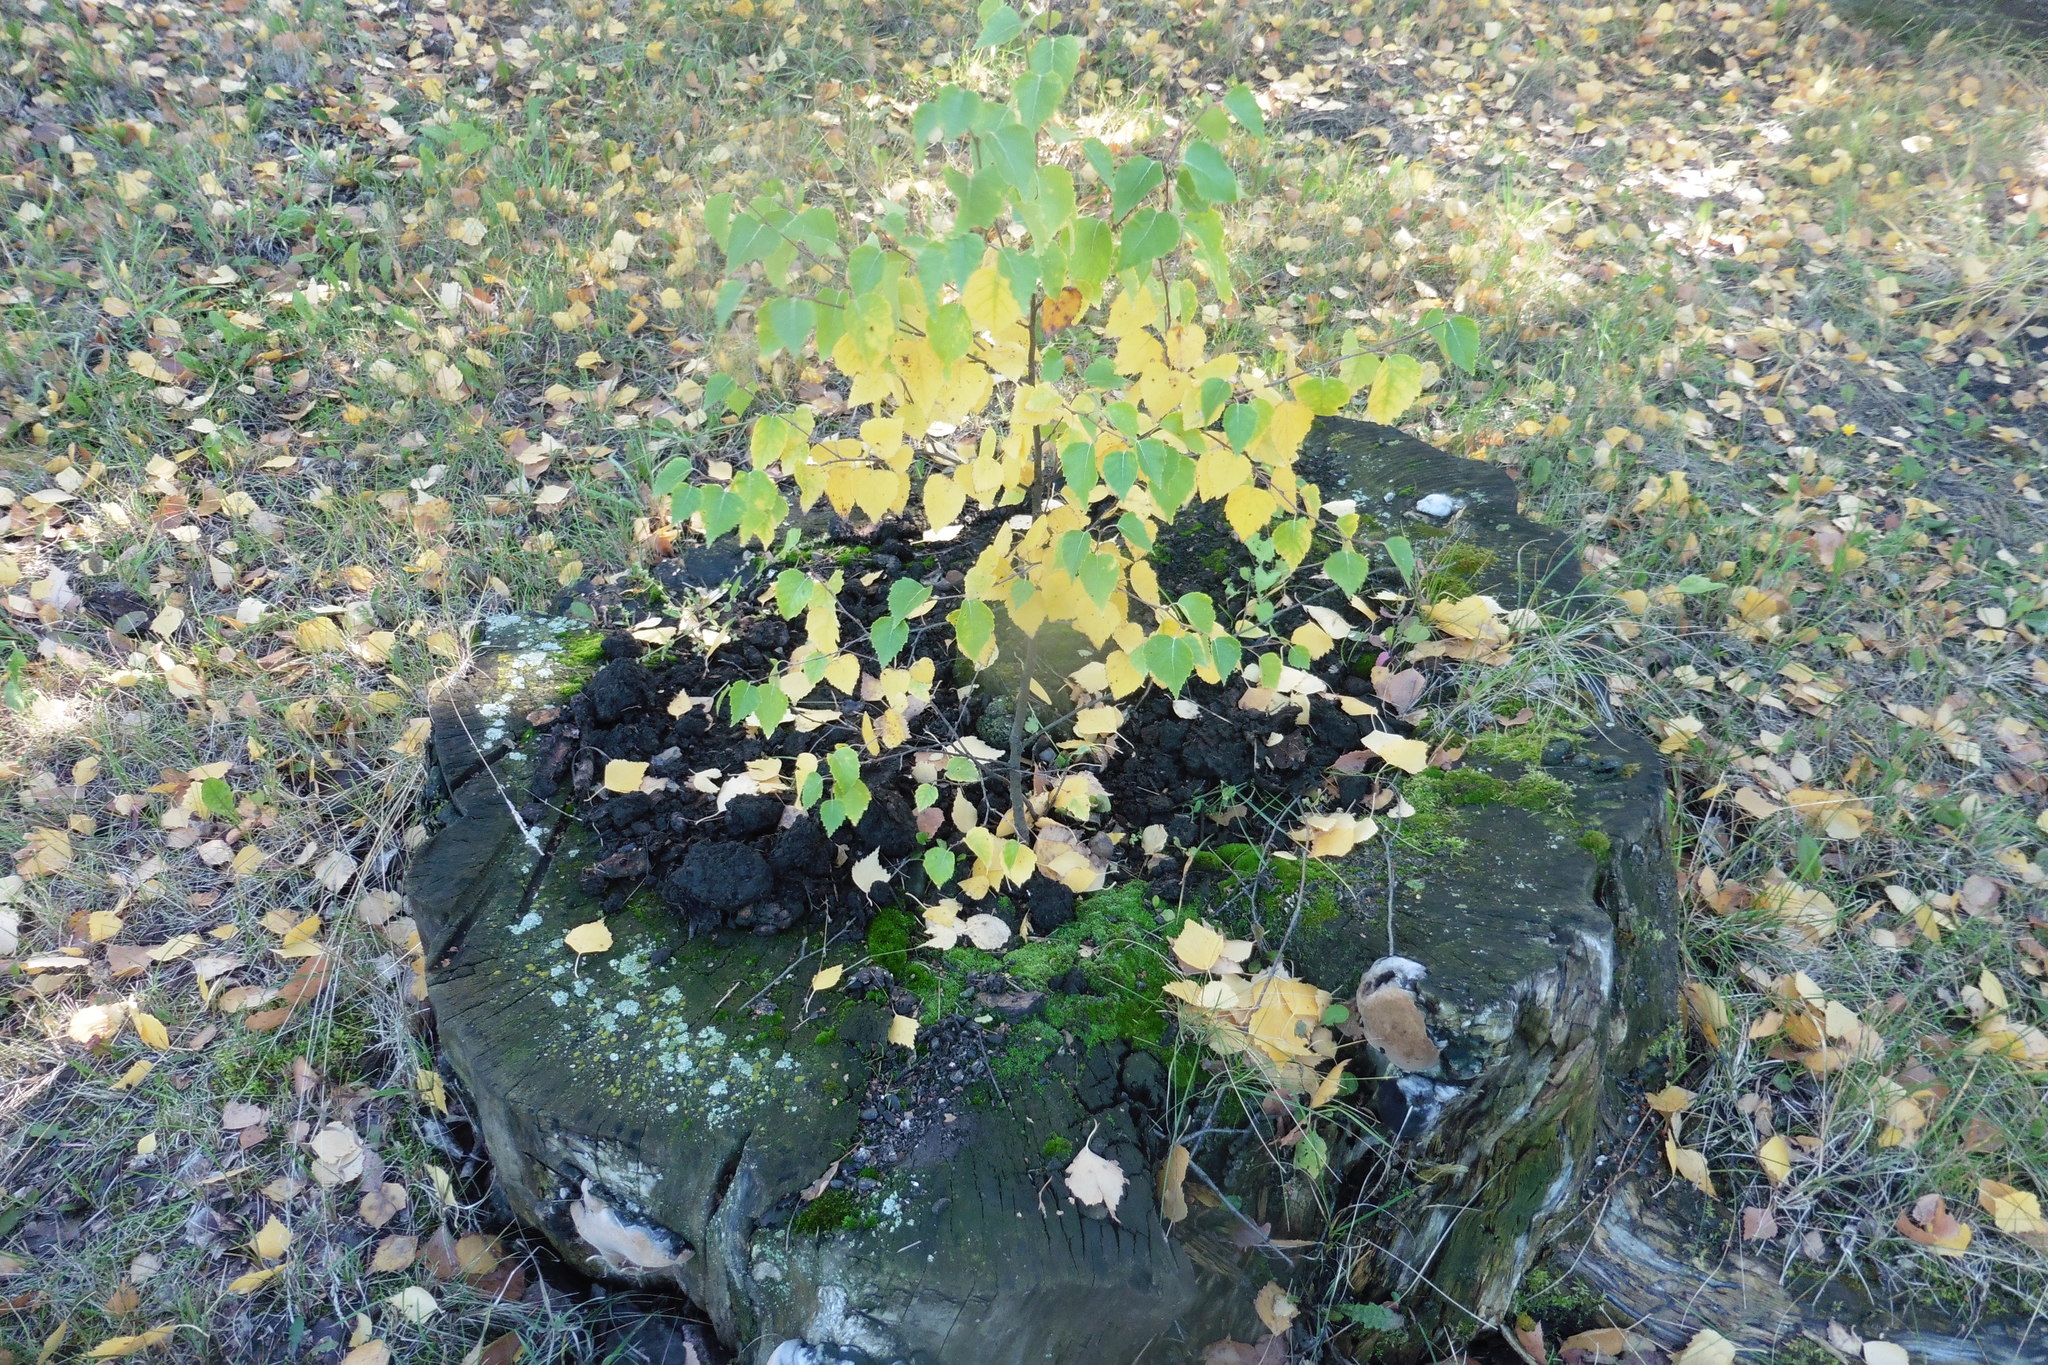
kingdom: Plantae
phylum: Tracheophyta
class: Magnoliopsida
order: Fagales
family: Betulaceae
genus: Betula
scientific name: Betula pendula
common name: Silver birch
